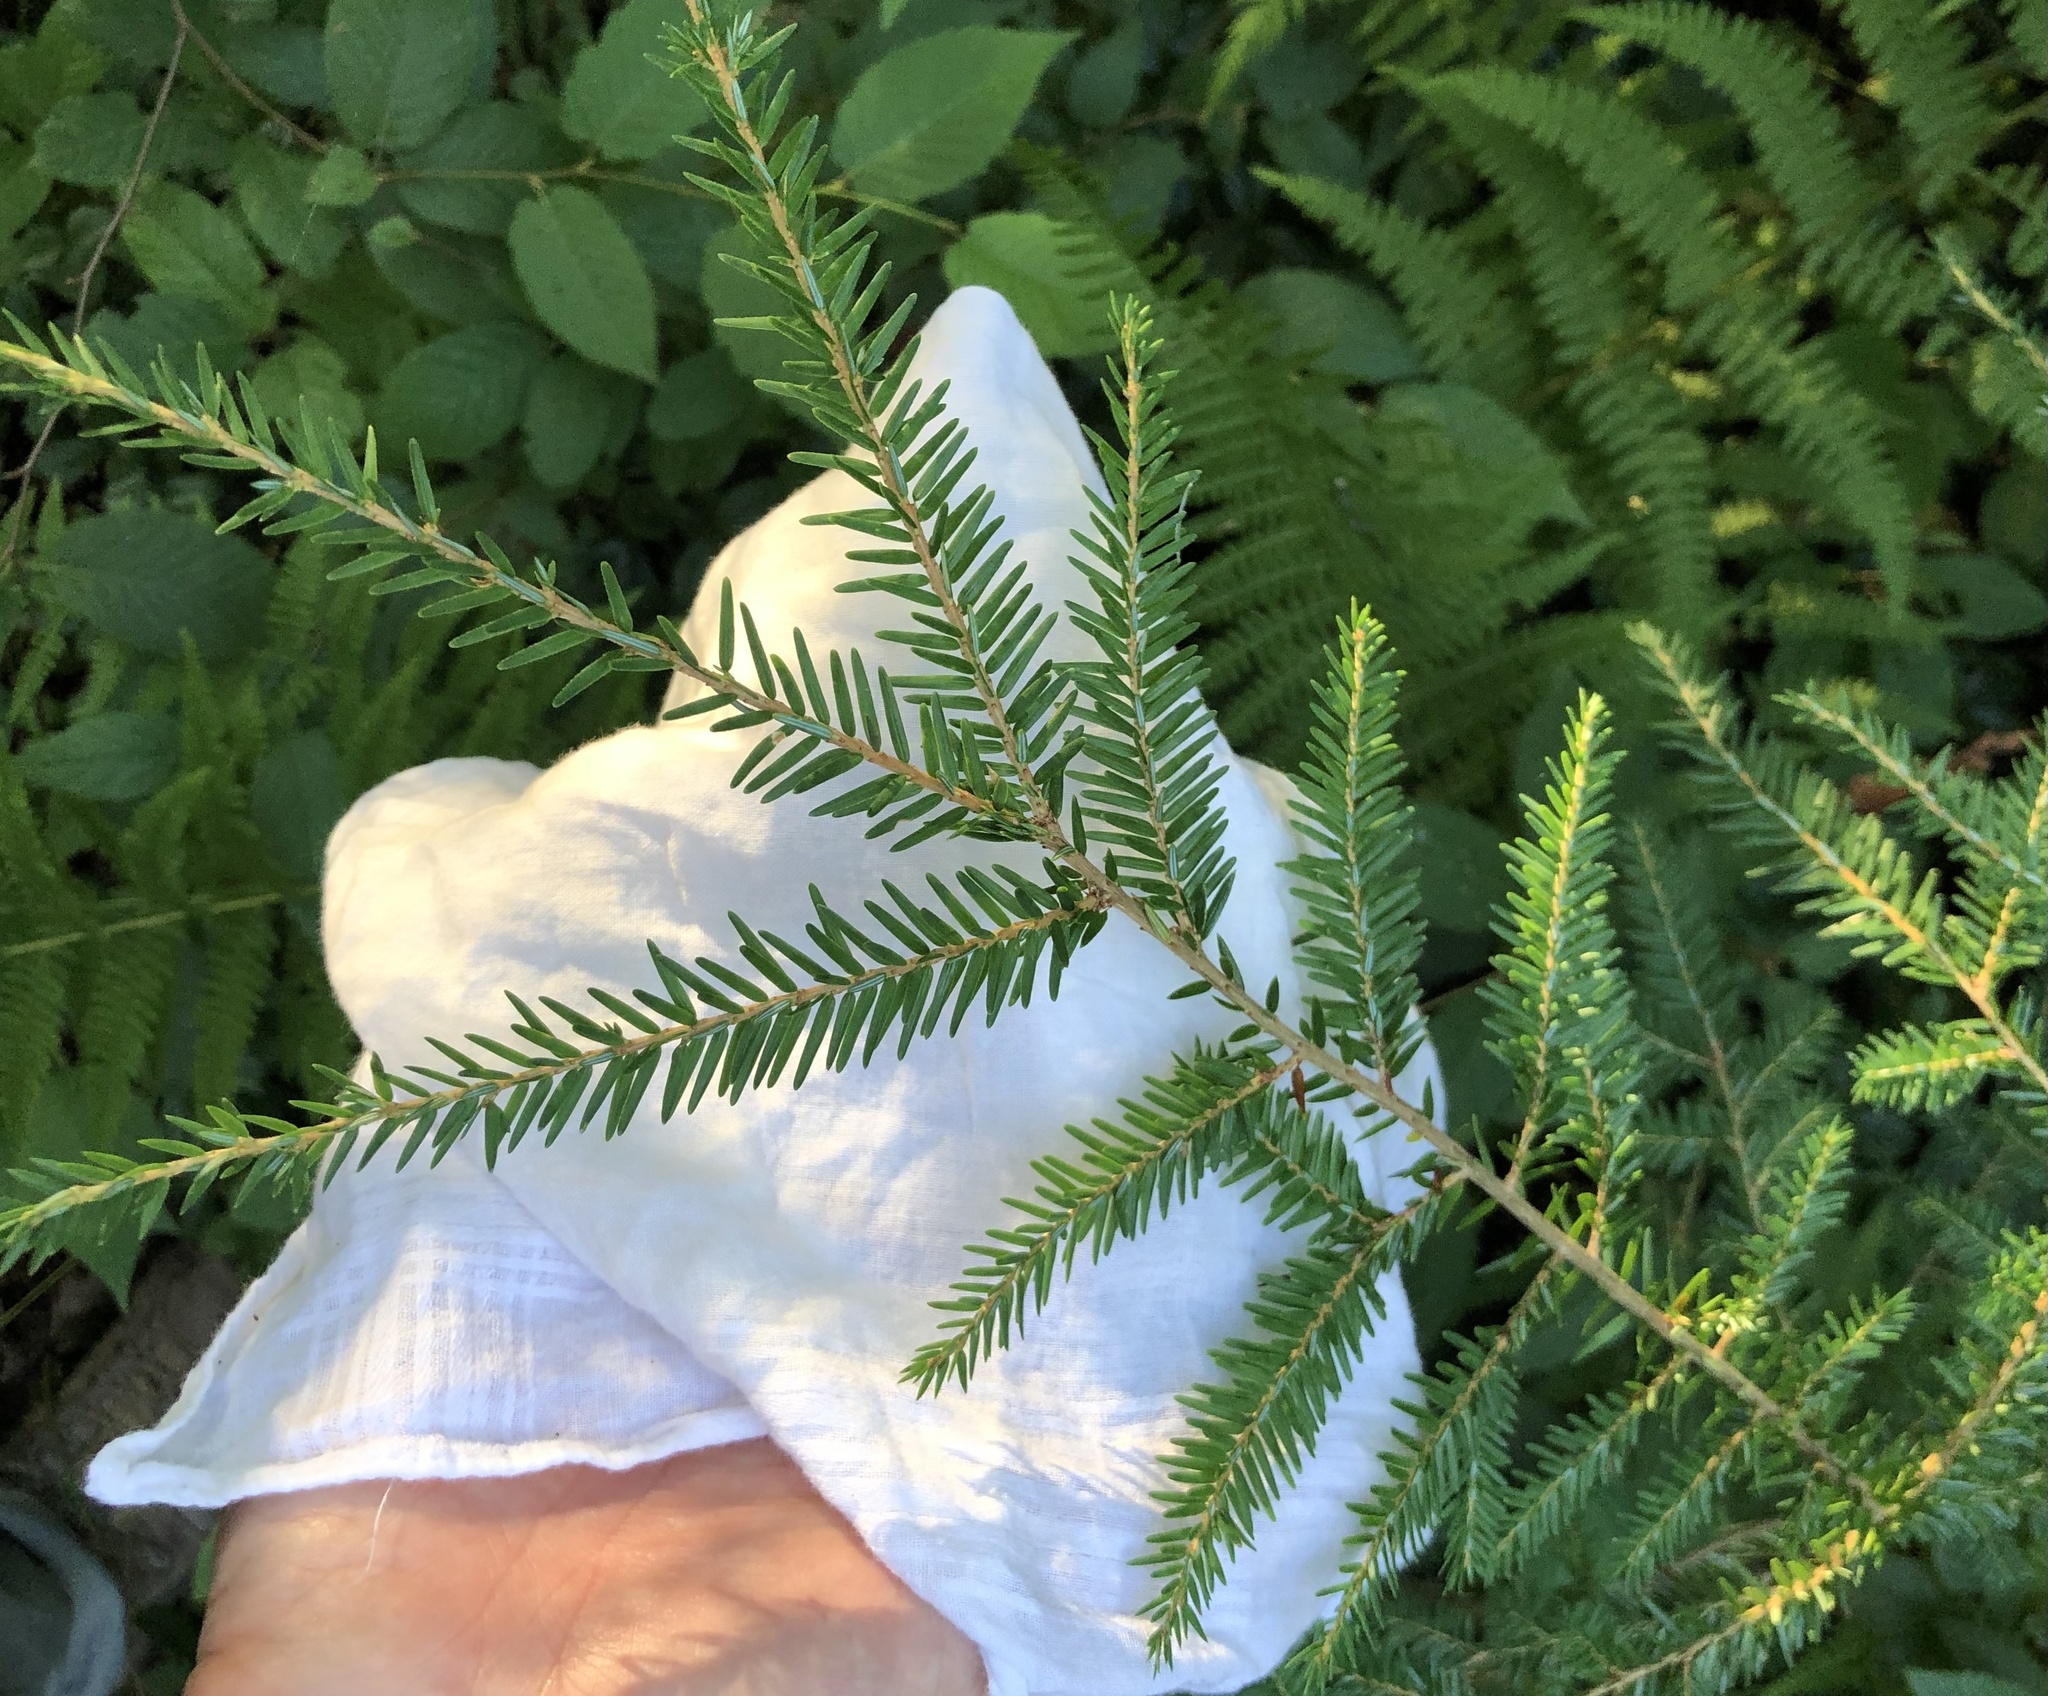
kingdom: Plantae
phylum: Tracheophyta
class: Pinopsida
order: Pinales
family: Pinaceae
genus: Tsuga
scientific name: Tsuga canadensis
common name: Eastern hemlock
